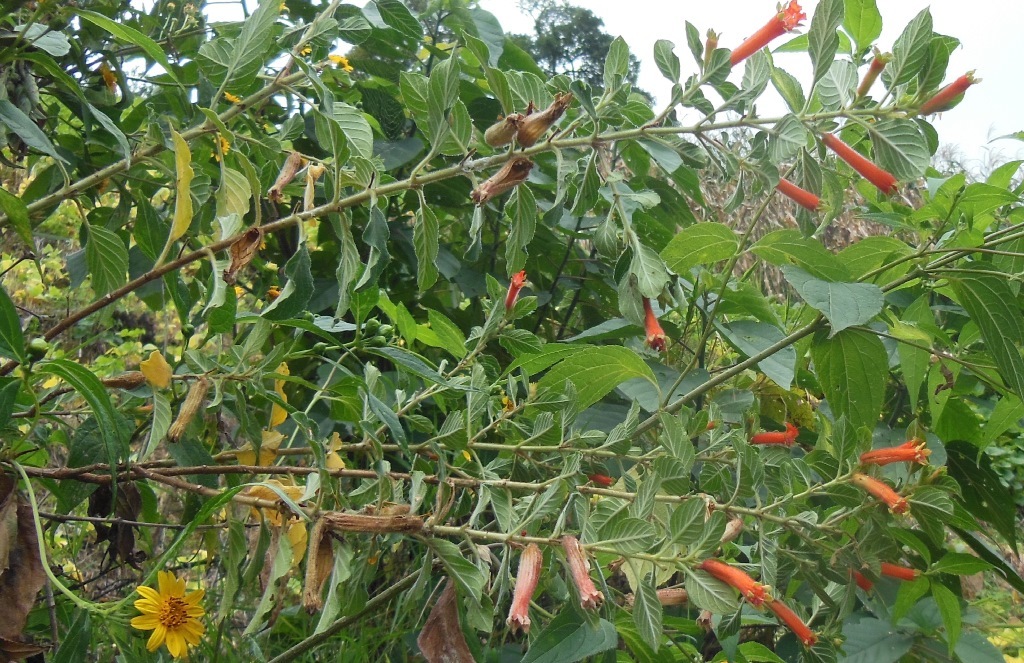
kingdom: Plantae
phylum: Tracheophyta
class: Magnoliopsida
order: Myrtales
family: Lythraceae
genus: Cuphea
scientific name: Cuphea salvadorensis
